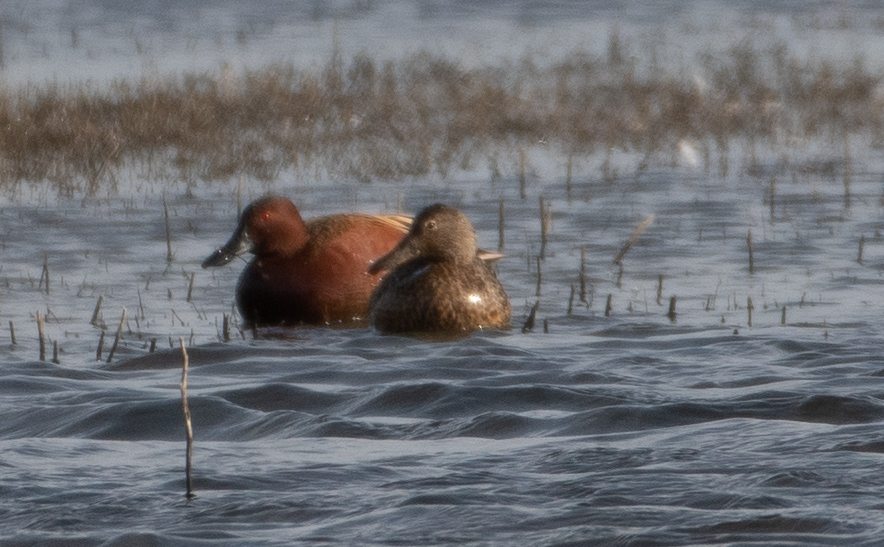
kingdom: Animalia
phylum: Chordata
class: Aves
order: Anseriformes
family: Anatidae
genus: Spatula
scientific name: Spatula cyanoptera
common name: Cinnamon teal
